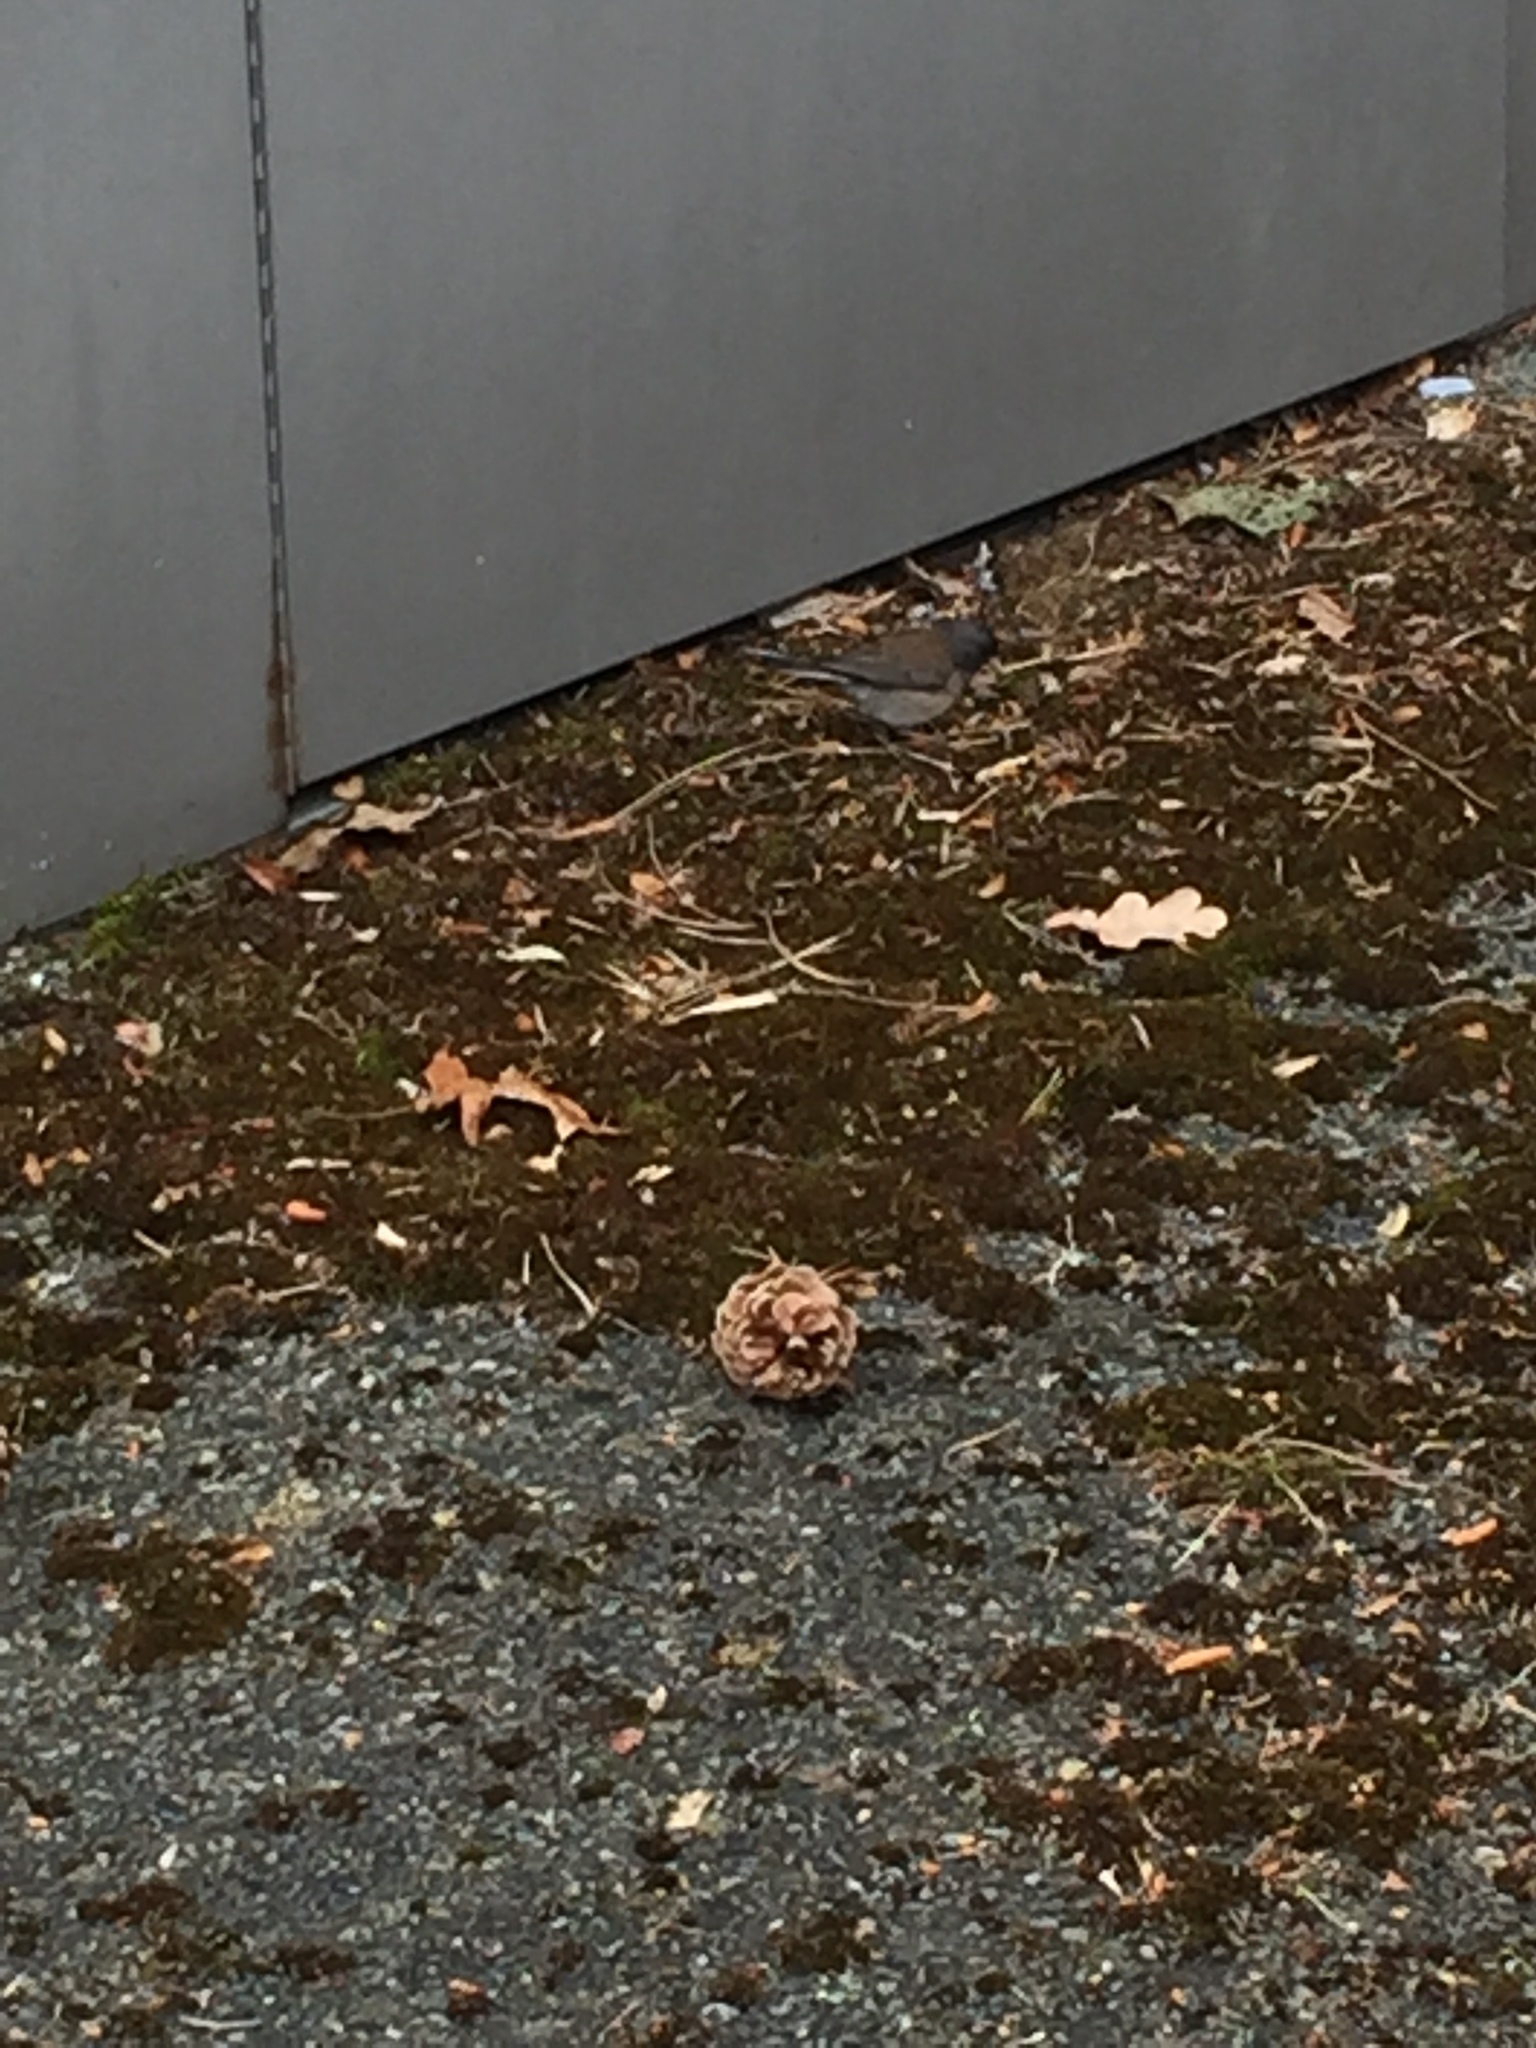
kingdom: Animalia
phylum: Chordata
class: Aves
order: Passeriformes
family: Passerellidae
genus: Junco
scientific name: Junco hyemalis
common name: Dark-eyed junco
